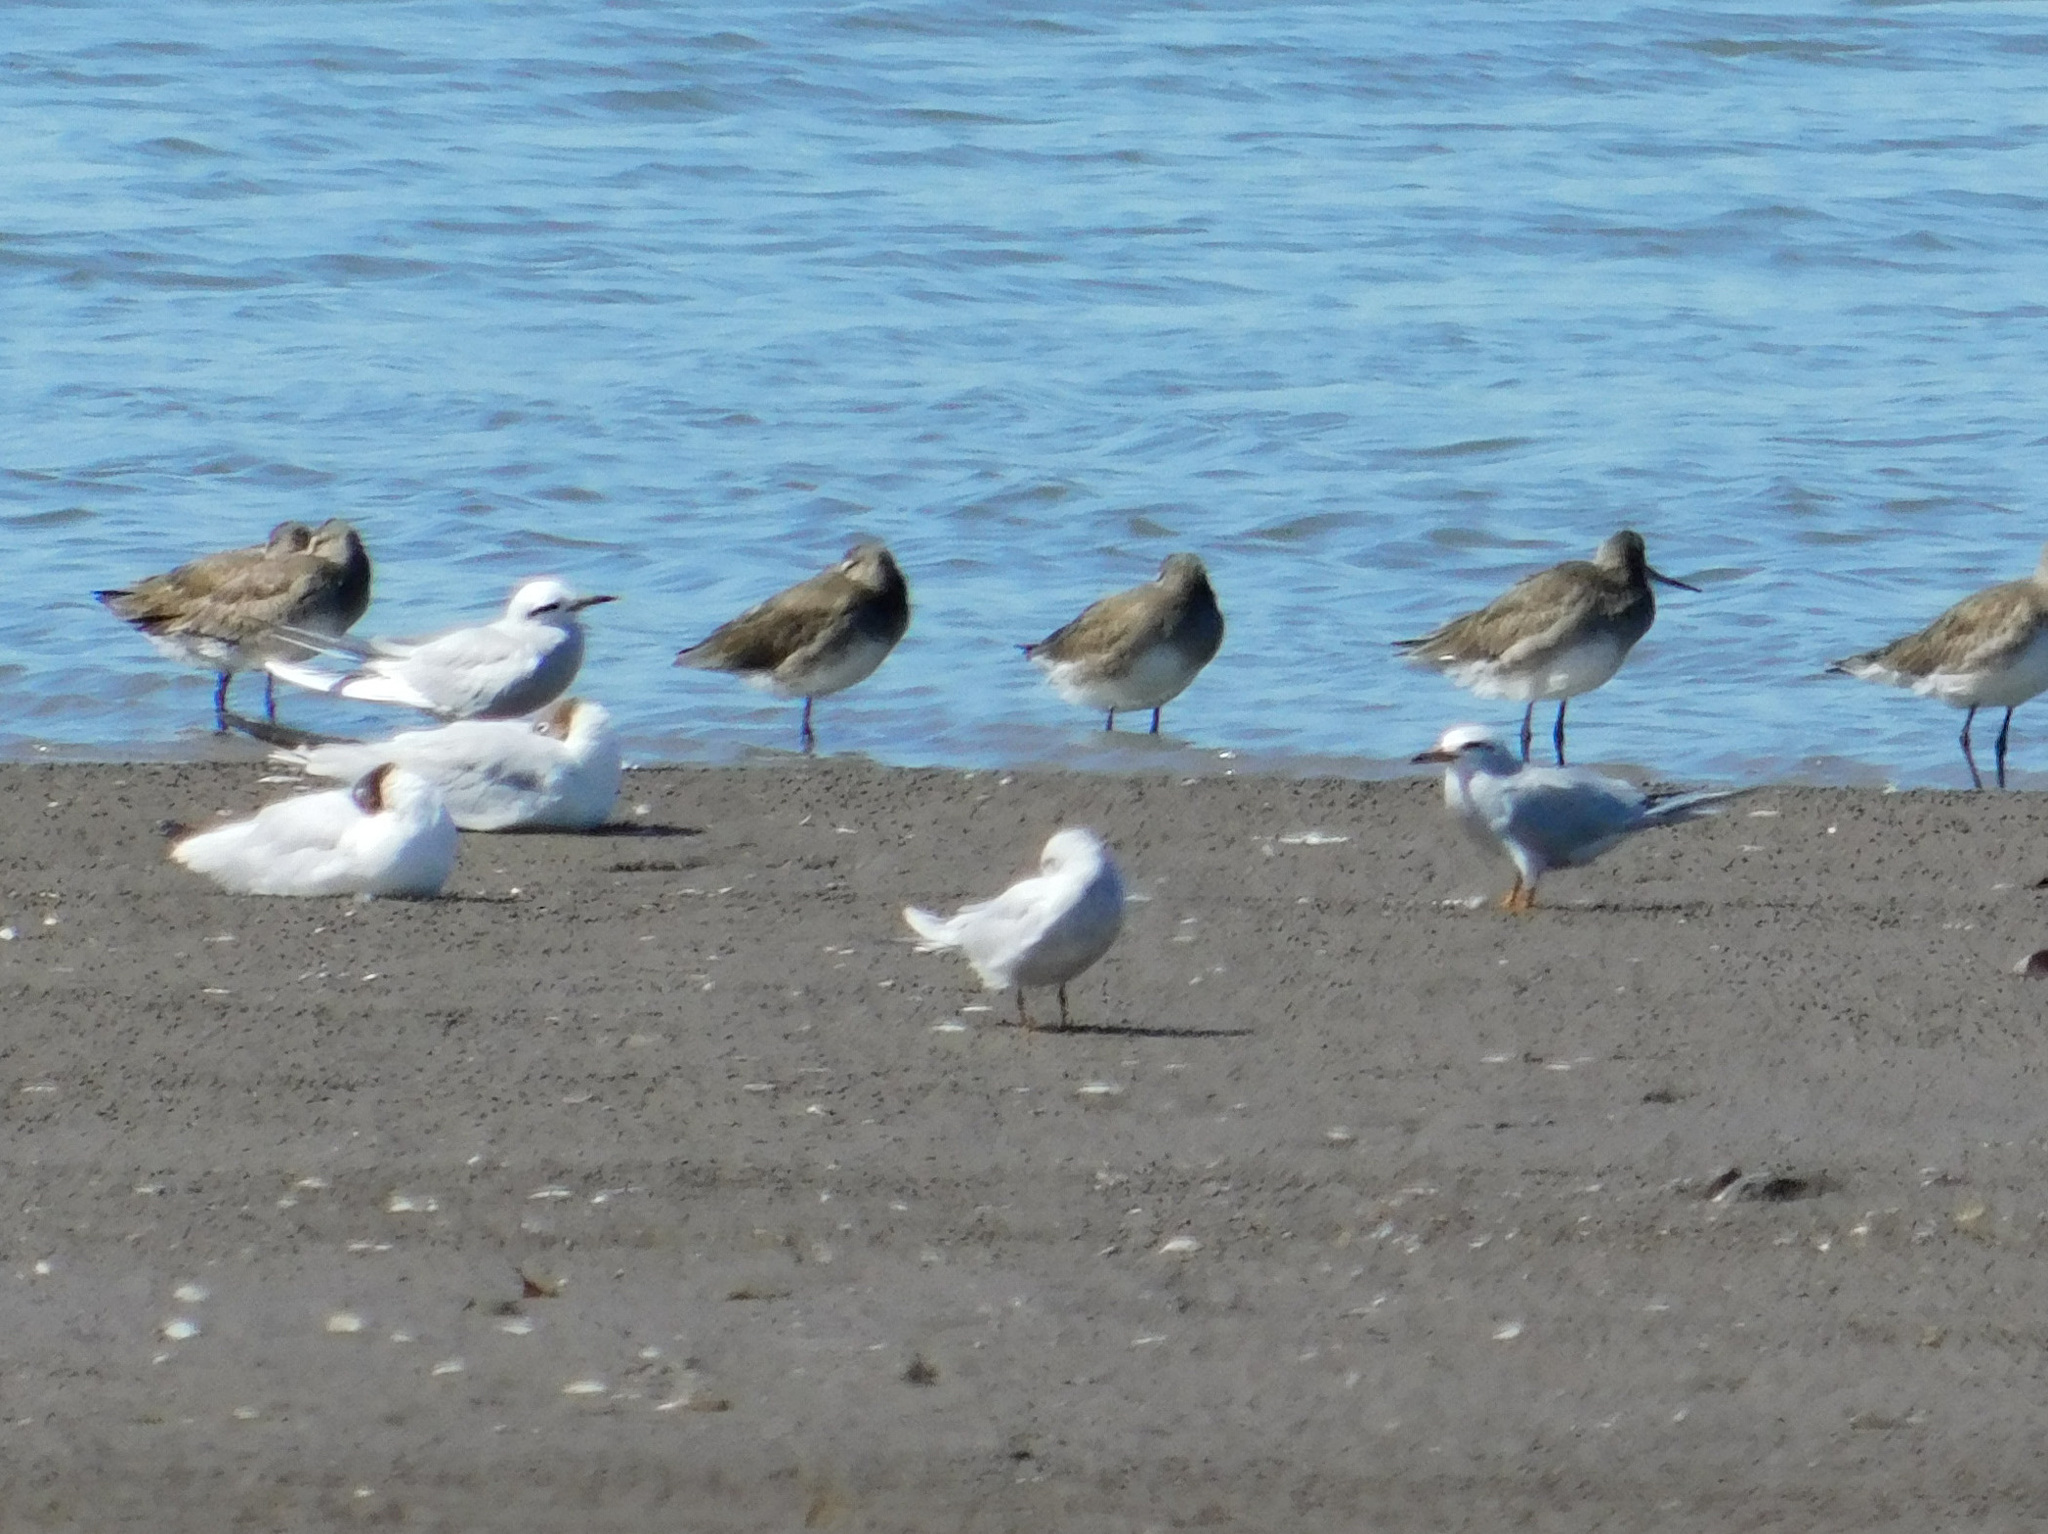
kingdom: Animalia
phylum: Chordata
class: Aves
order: Charadriiformes
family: Laridae
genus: Sterna
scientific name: Sterna trudeaui
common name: Snowy-crowned tern
